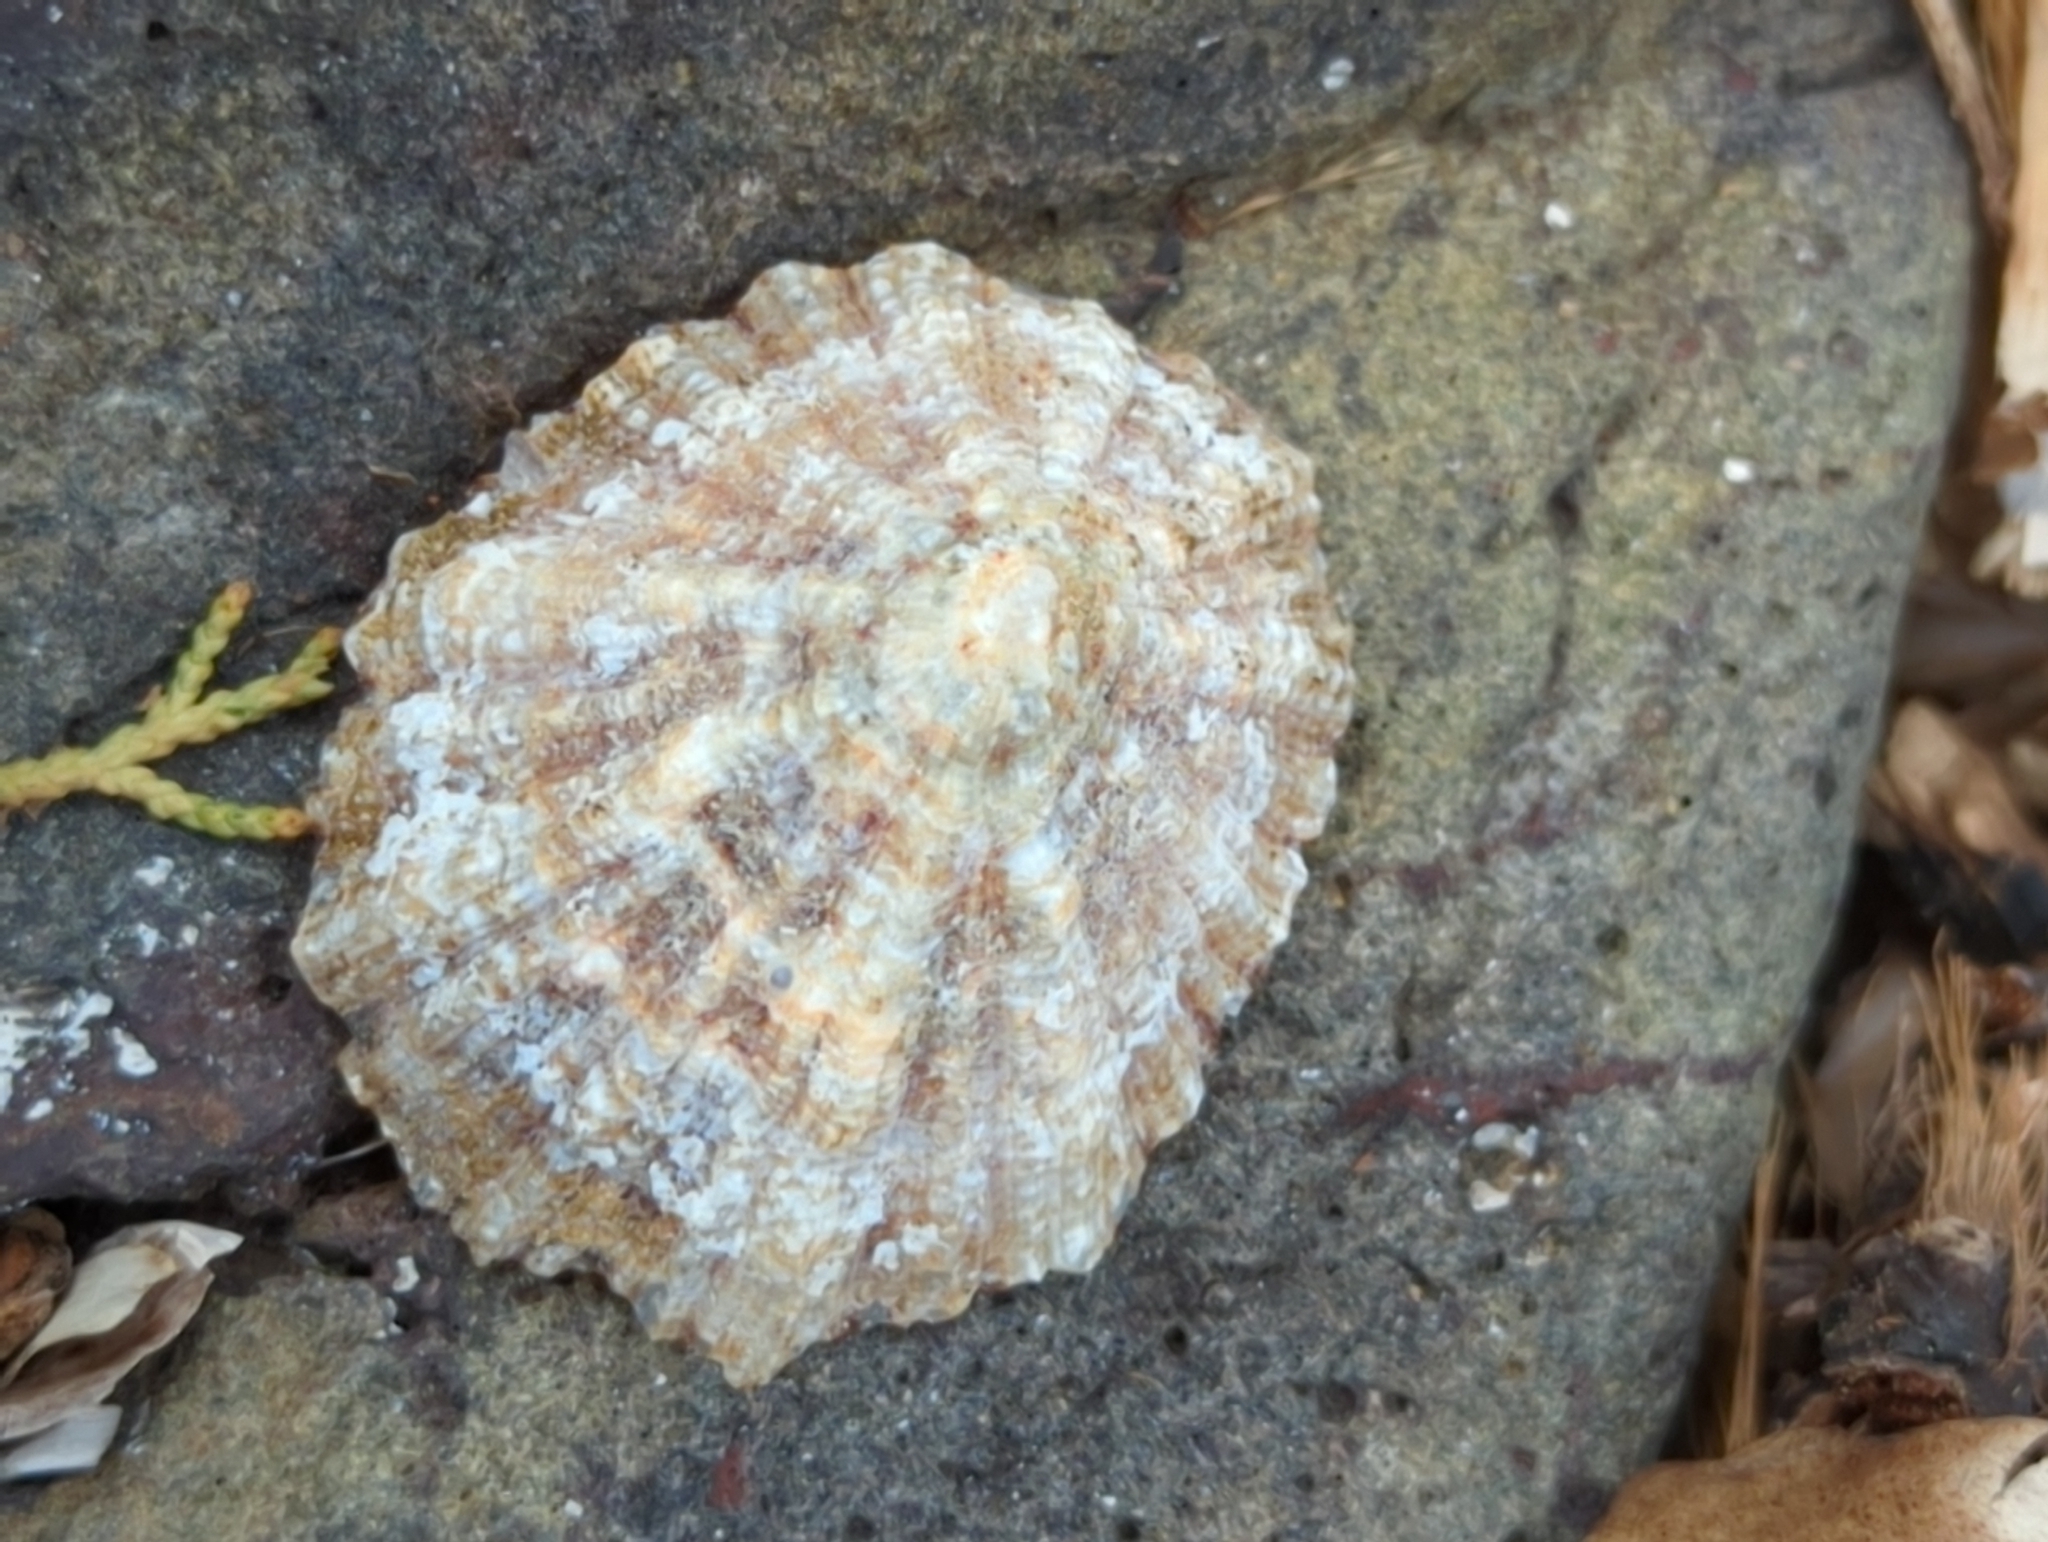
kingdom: Animalia
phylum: Mollusca
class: Gastropoda
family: Patellidae
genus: Patella
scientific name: Patella caerulea
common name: Mediterranean limpet
